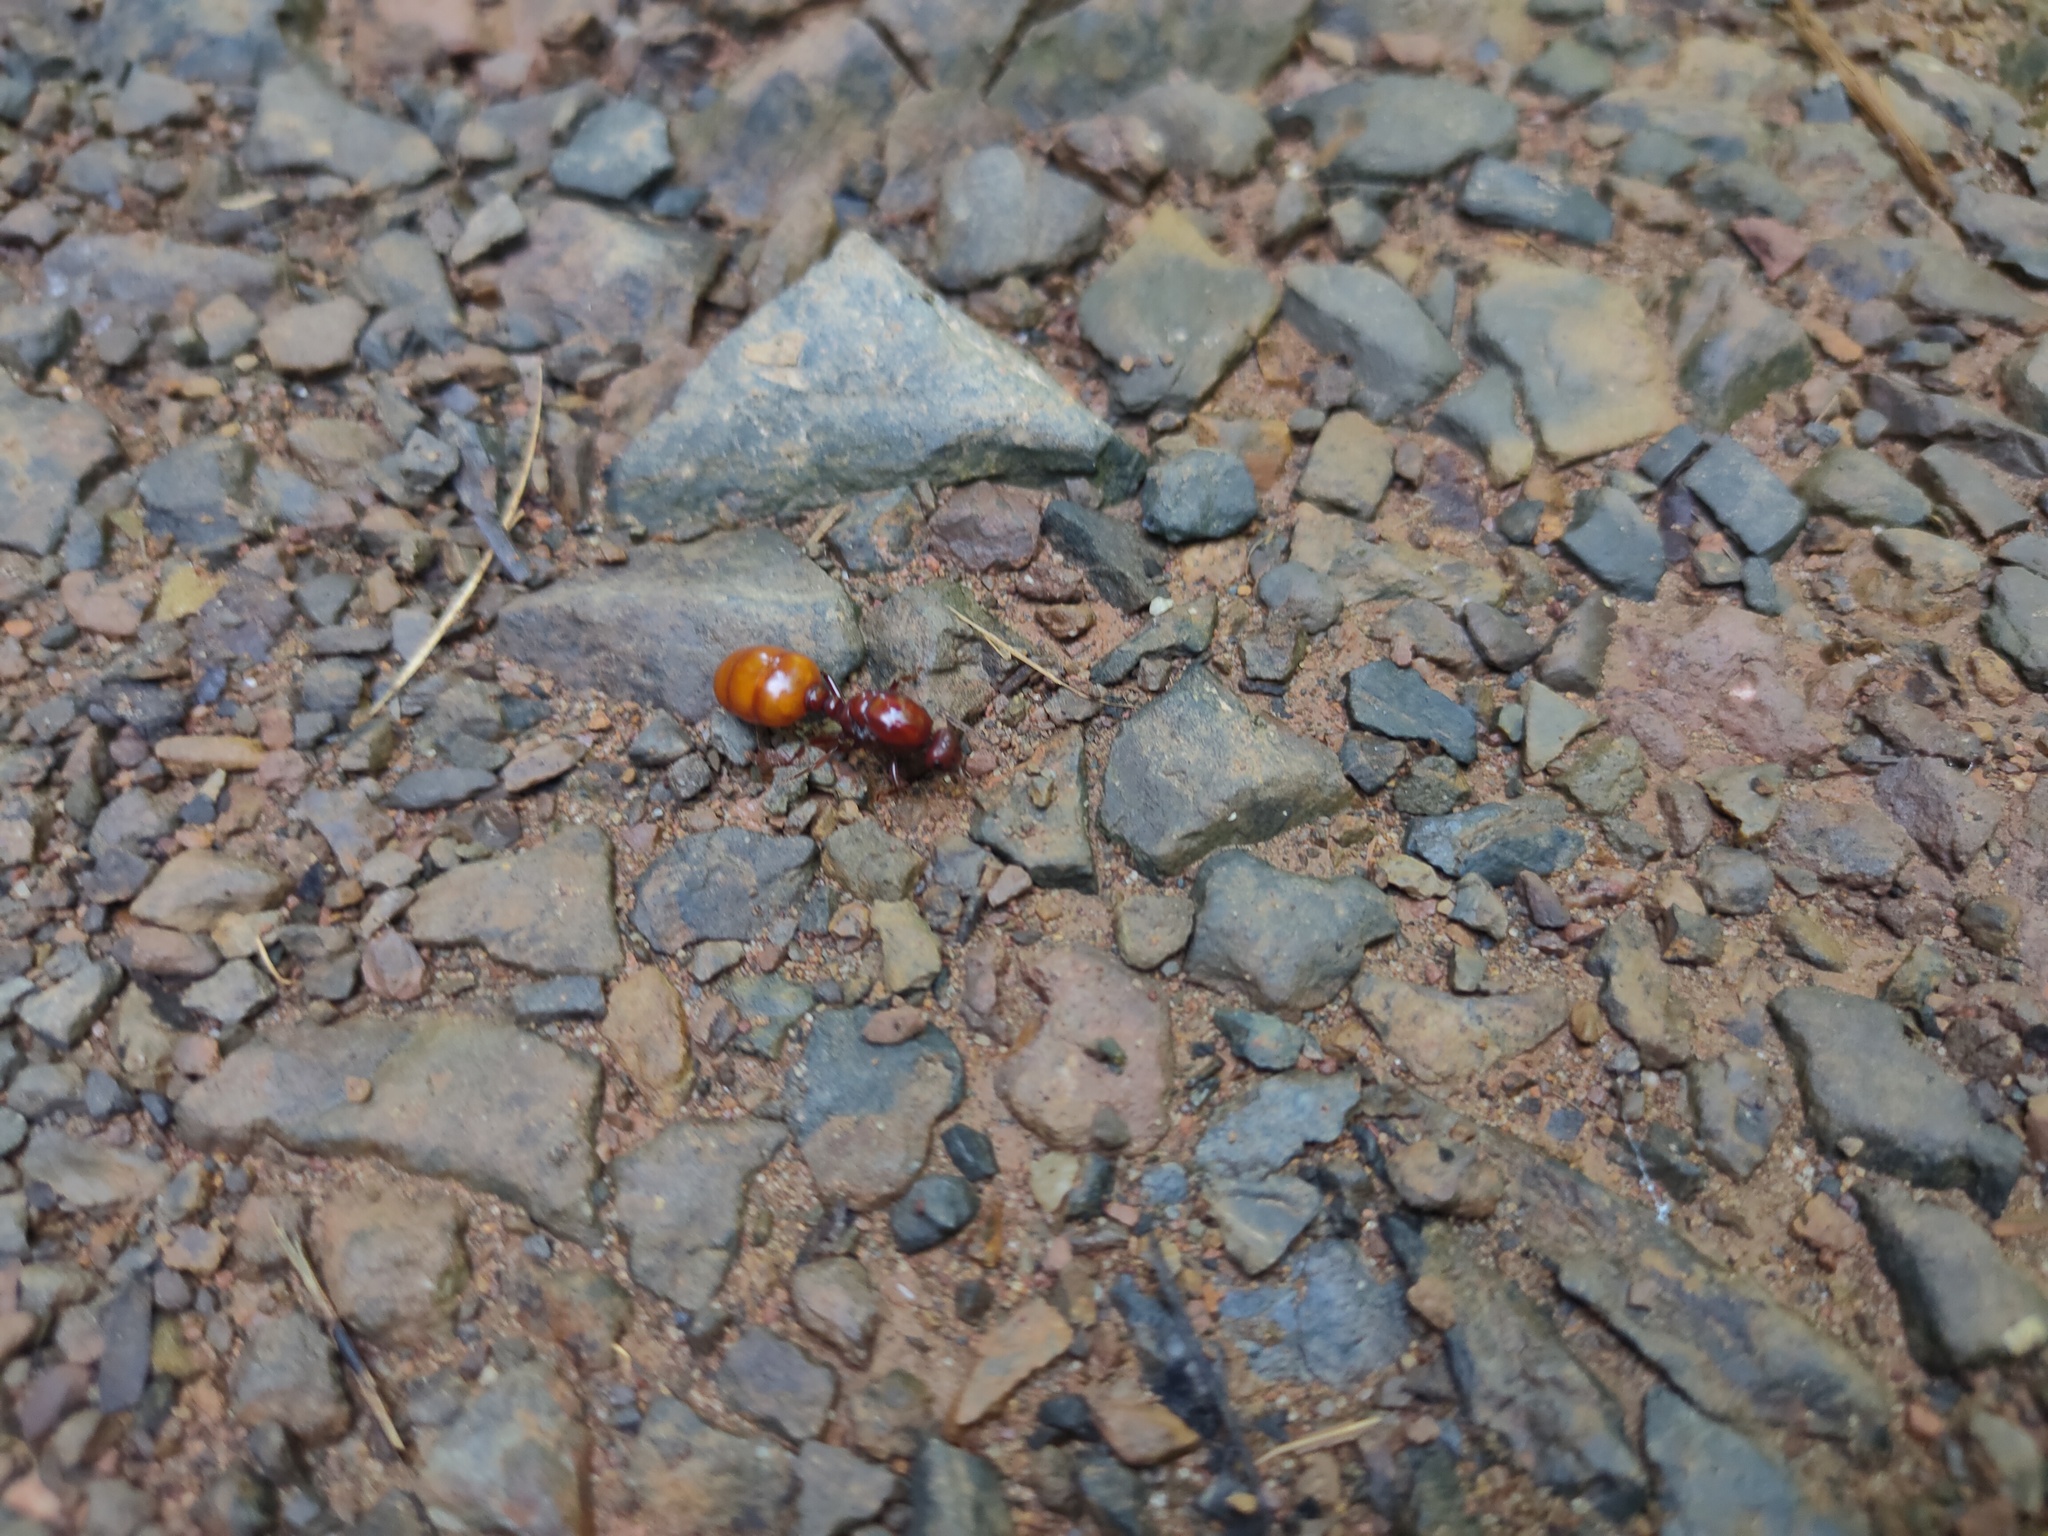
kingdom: Animalia
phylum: Arthropoda
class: Insecta
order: Hymenoptera
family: Formicidae
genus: Carebara
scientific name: Carebara castanea
